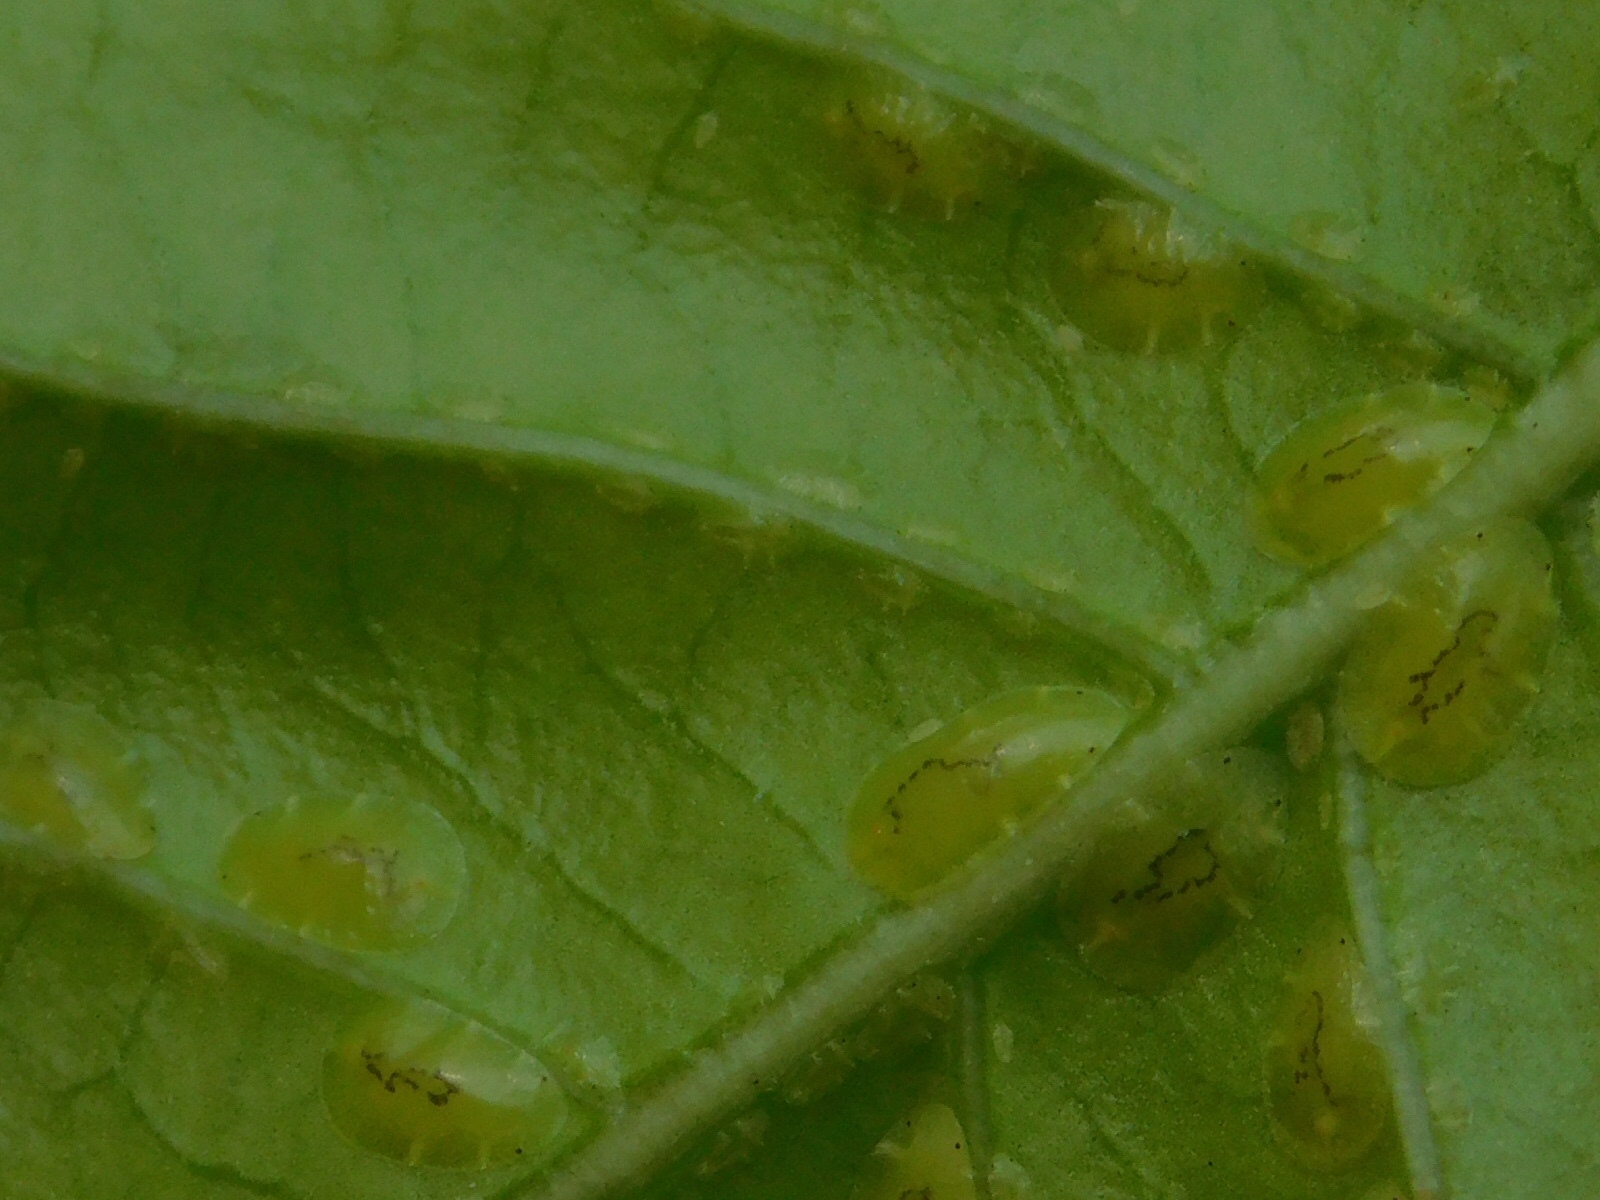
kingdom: Animalia
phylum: Arthropoda
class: Insecta
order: Hemiptera
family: Coccidae
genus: Coccus
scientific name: Coccus viridis
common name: Green scale
